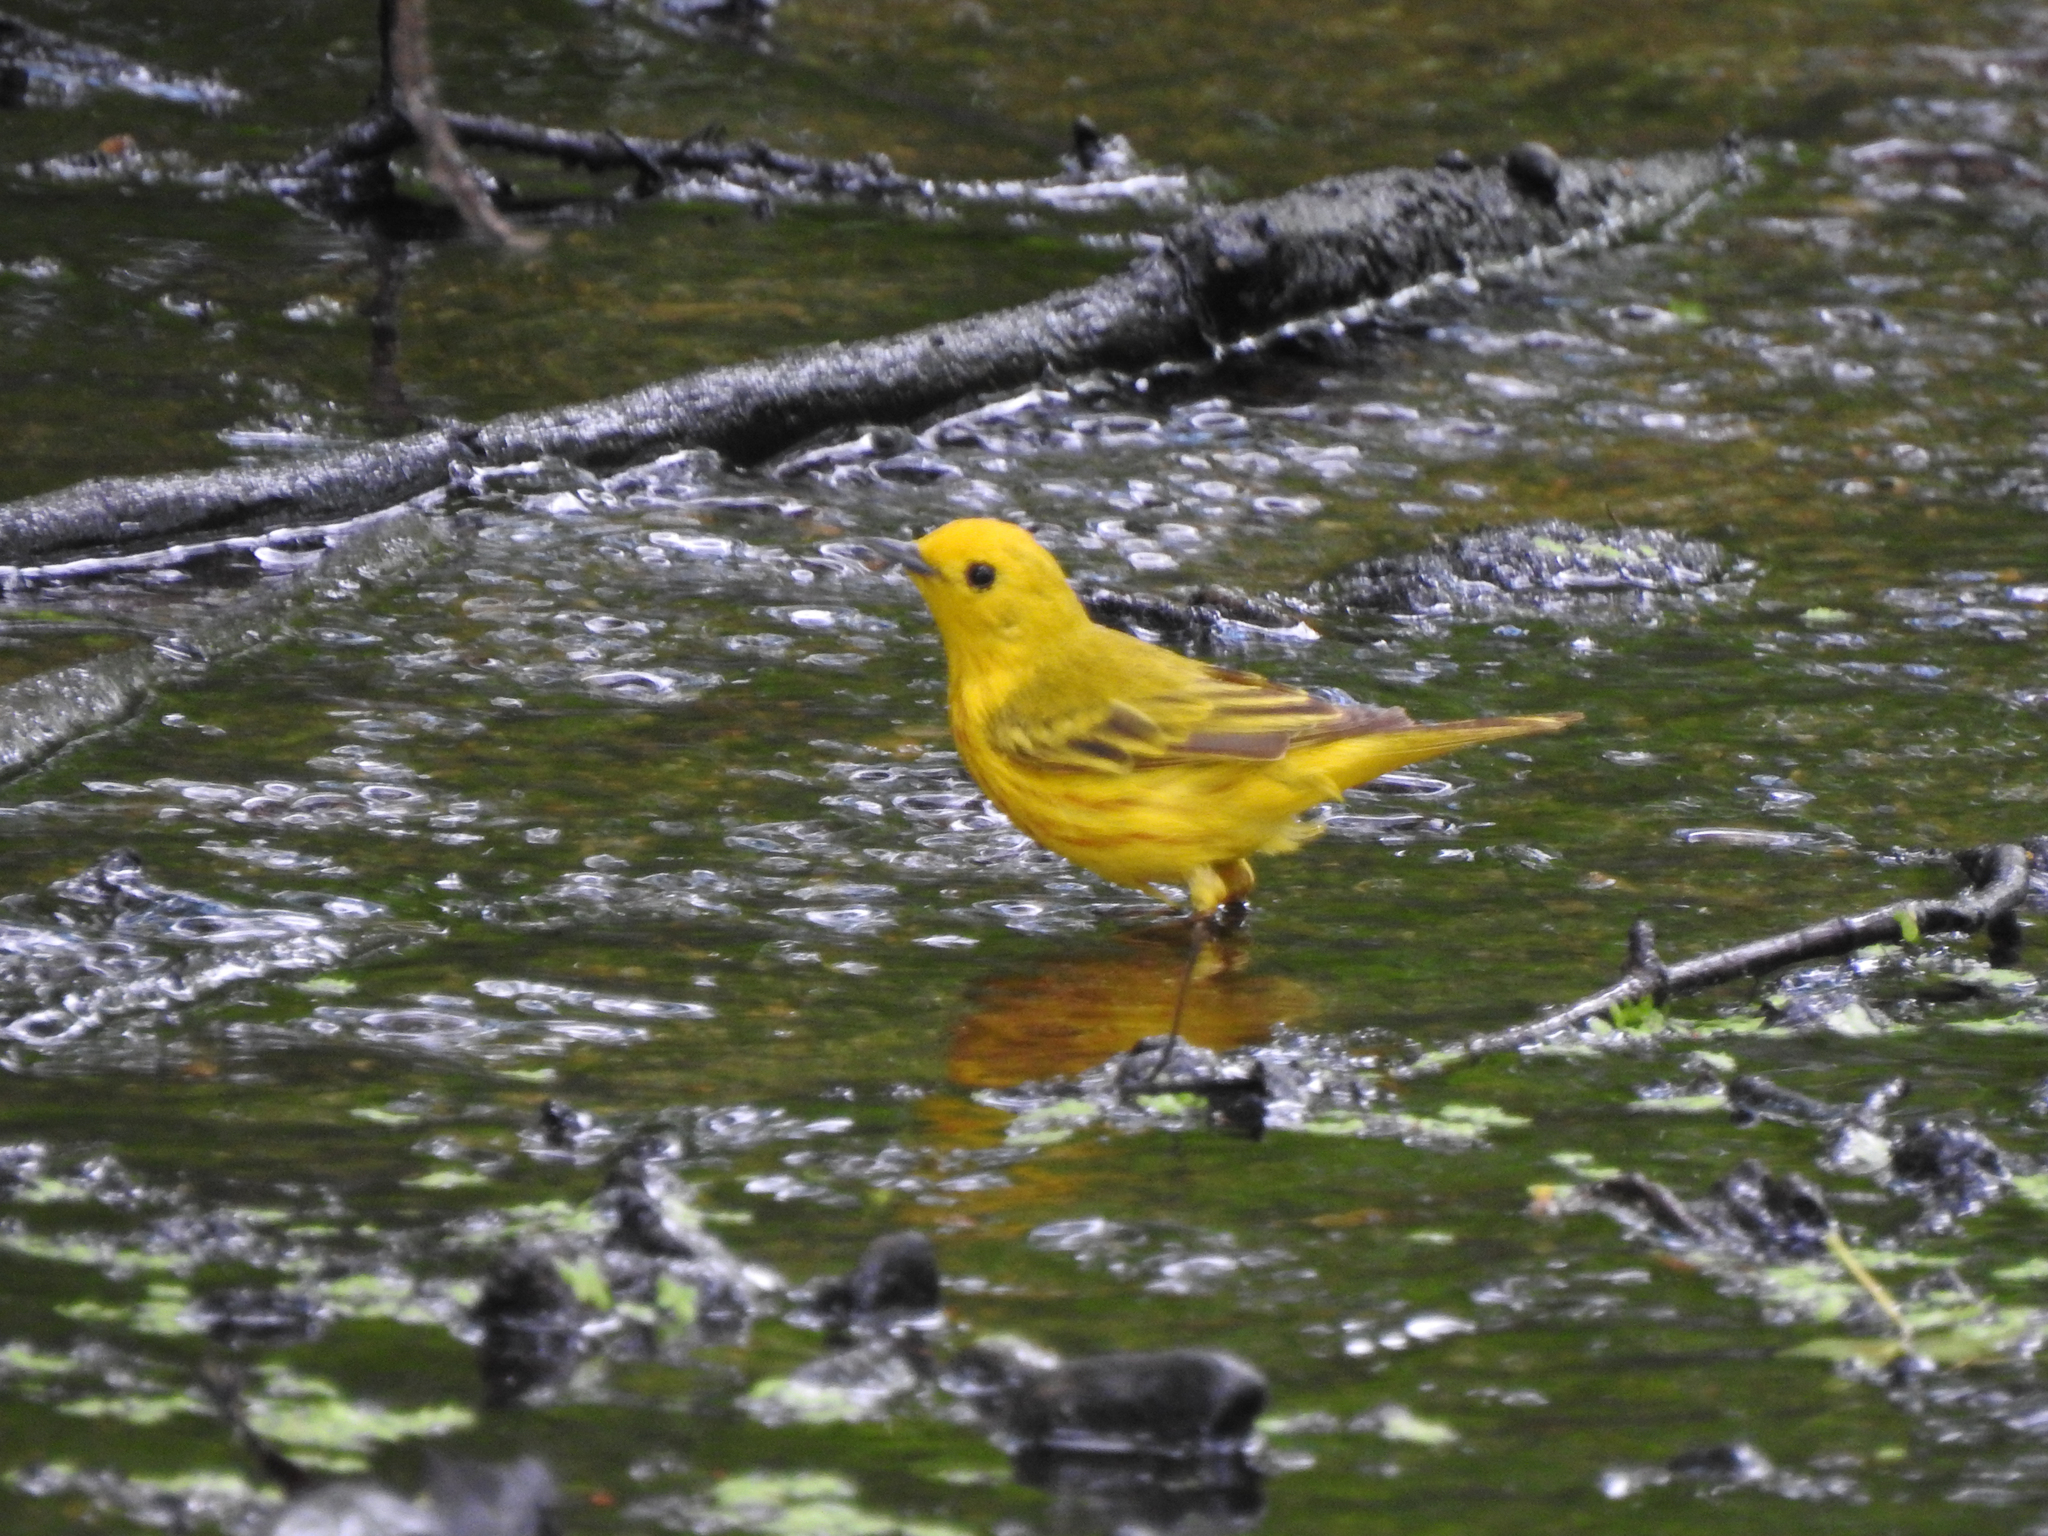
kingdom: Animalia
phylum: Chordata
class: Aves
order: Passeriformes
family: Parulidae
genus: Setophaga
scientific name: Setophaga petechia
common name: Yellow warbler
